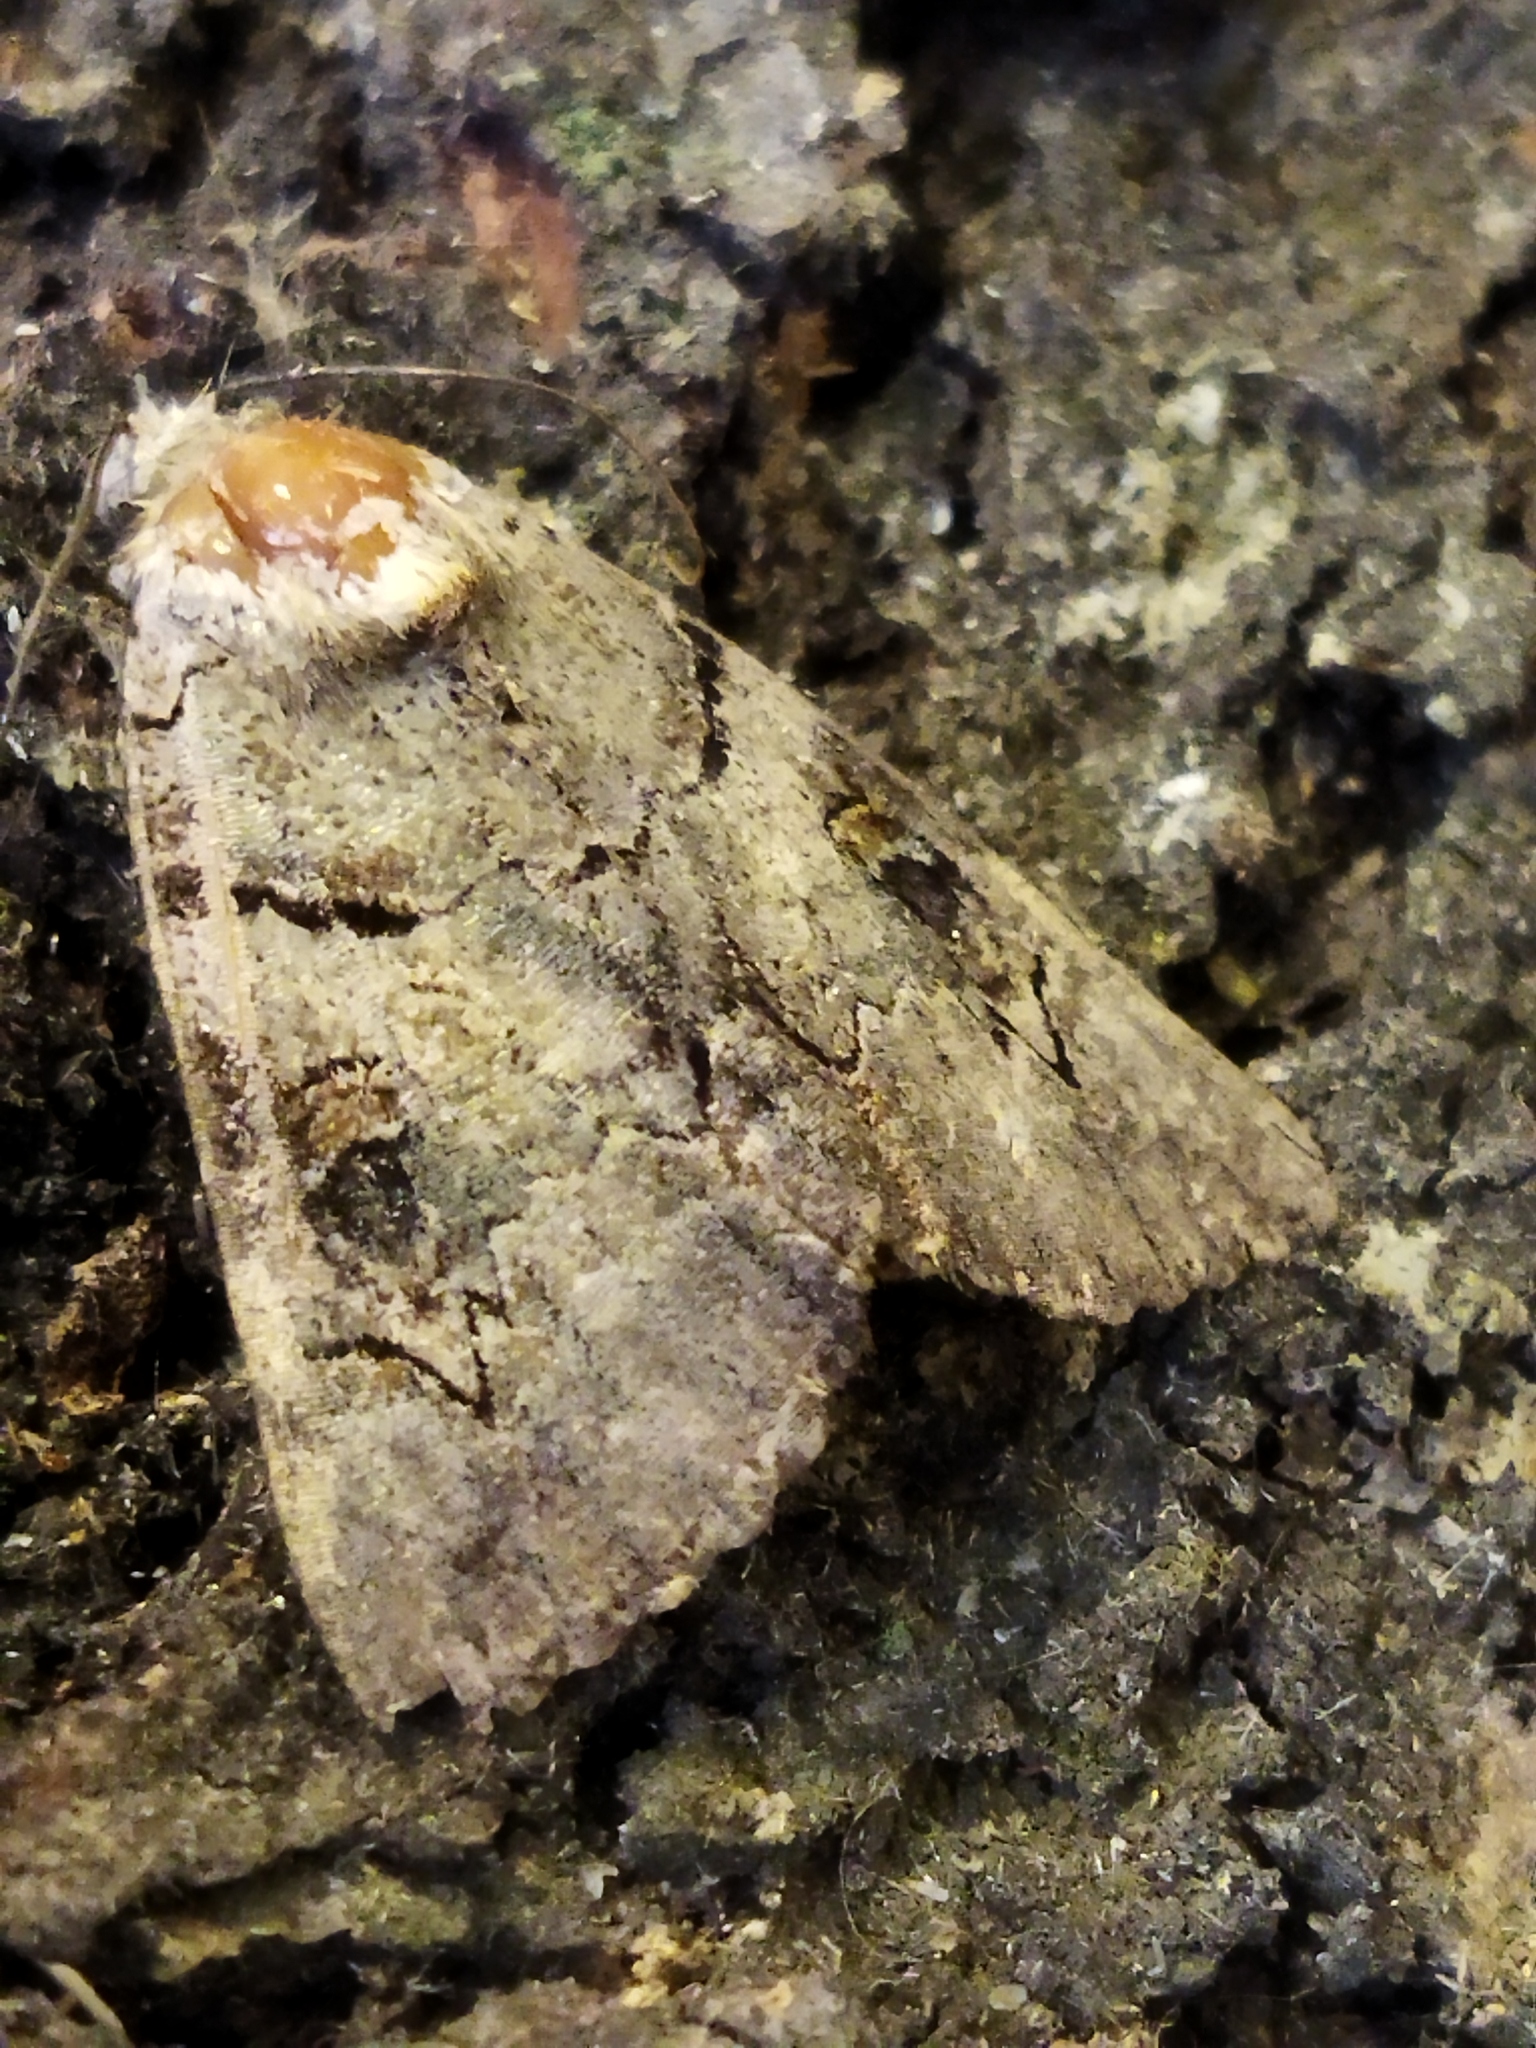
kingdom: Animalia
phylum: Arthropoda
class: Insecta
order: Lepidoptera
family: Erebidae
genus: Catocala
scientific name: Catocala hymenaea
